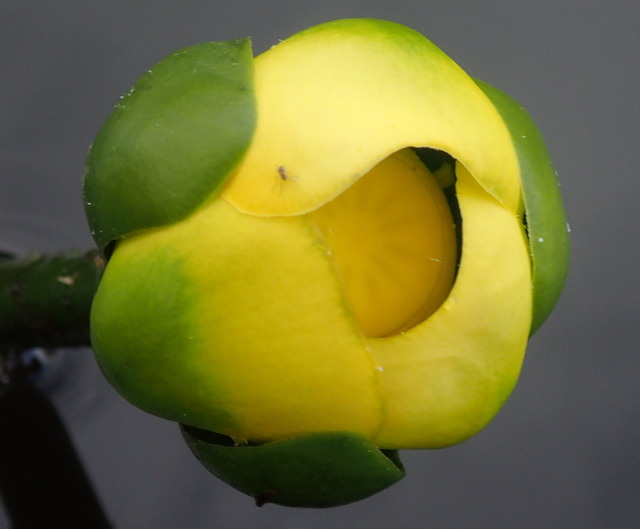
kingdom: Plantae
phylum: Tracheophyta
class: Magnoliopsida
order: Nymphaeales
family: Nymphaeaceae
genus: Nuphar
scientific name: Nuphar advena
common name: Spatter-dock
